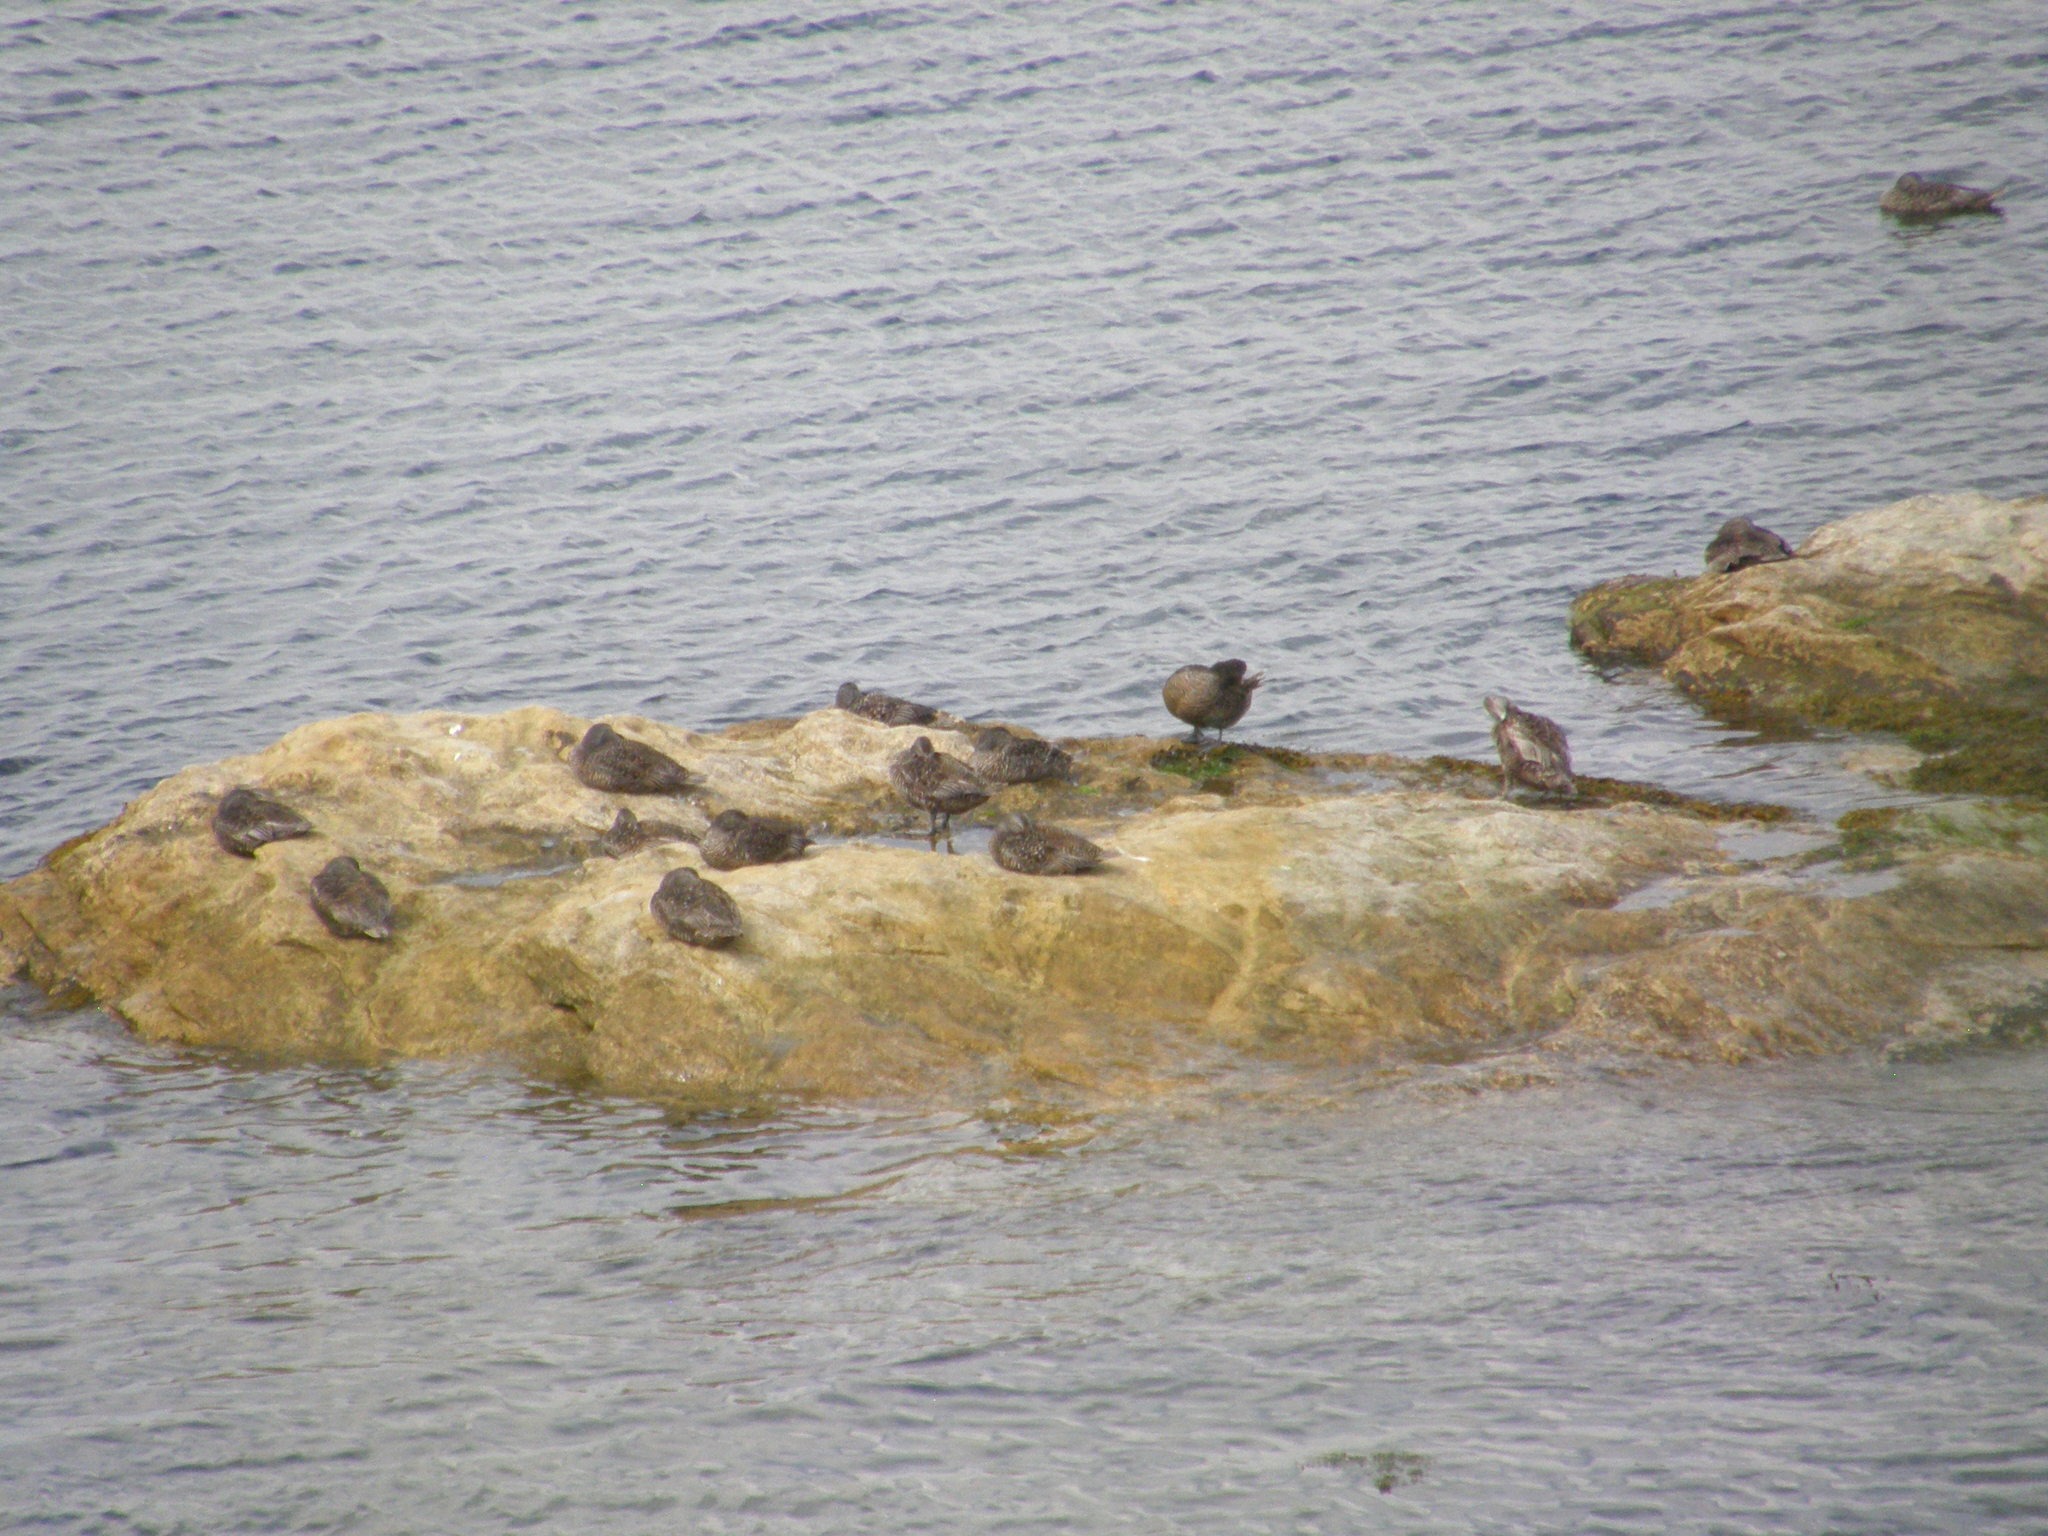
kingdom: Animalia
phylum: Chordata
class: Aves
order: Anseriformes
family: Anatidae
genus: Somateria
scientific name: Somateria mollissima
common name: Common eider
